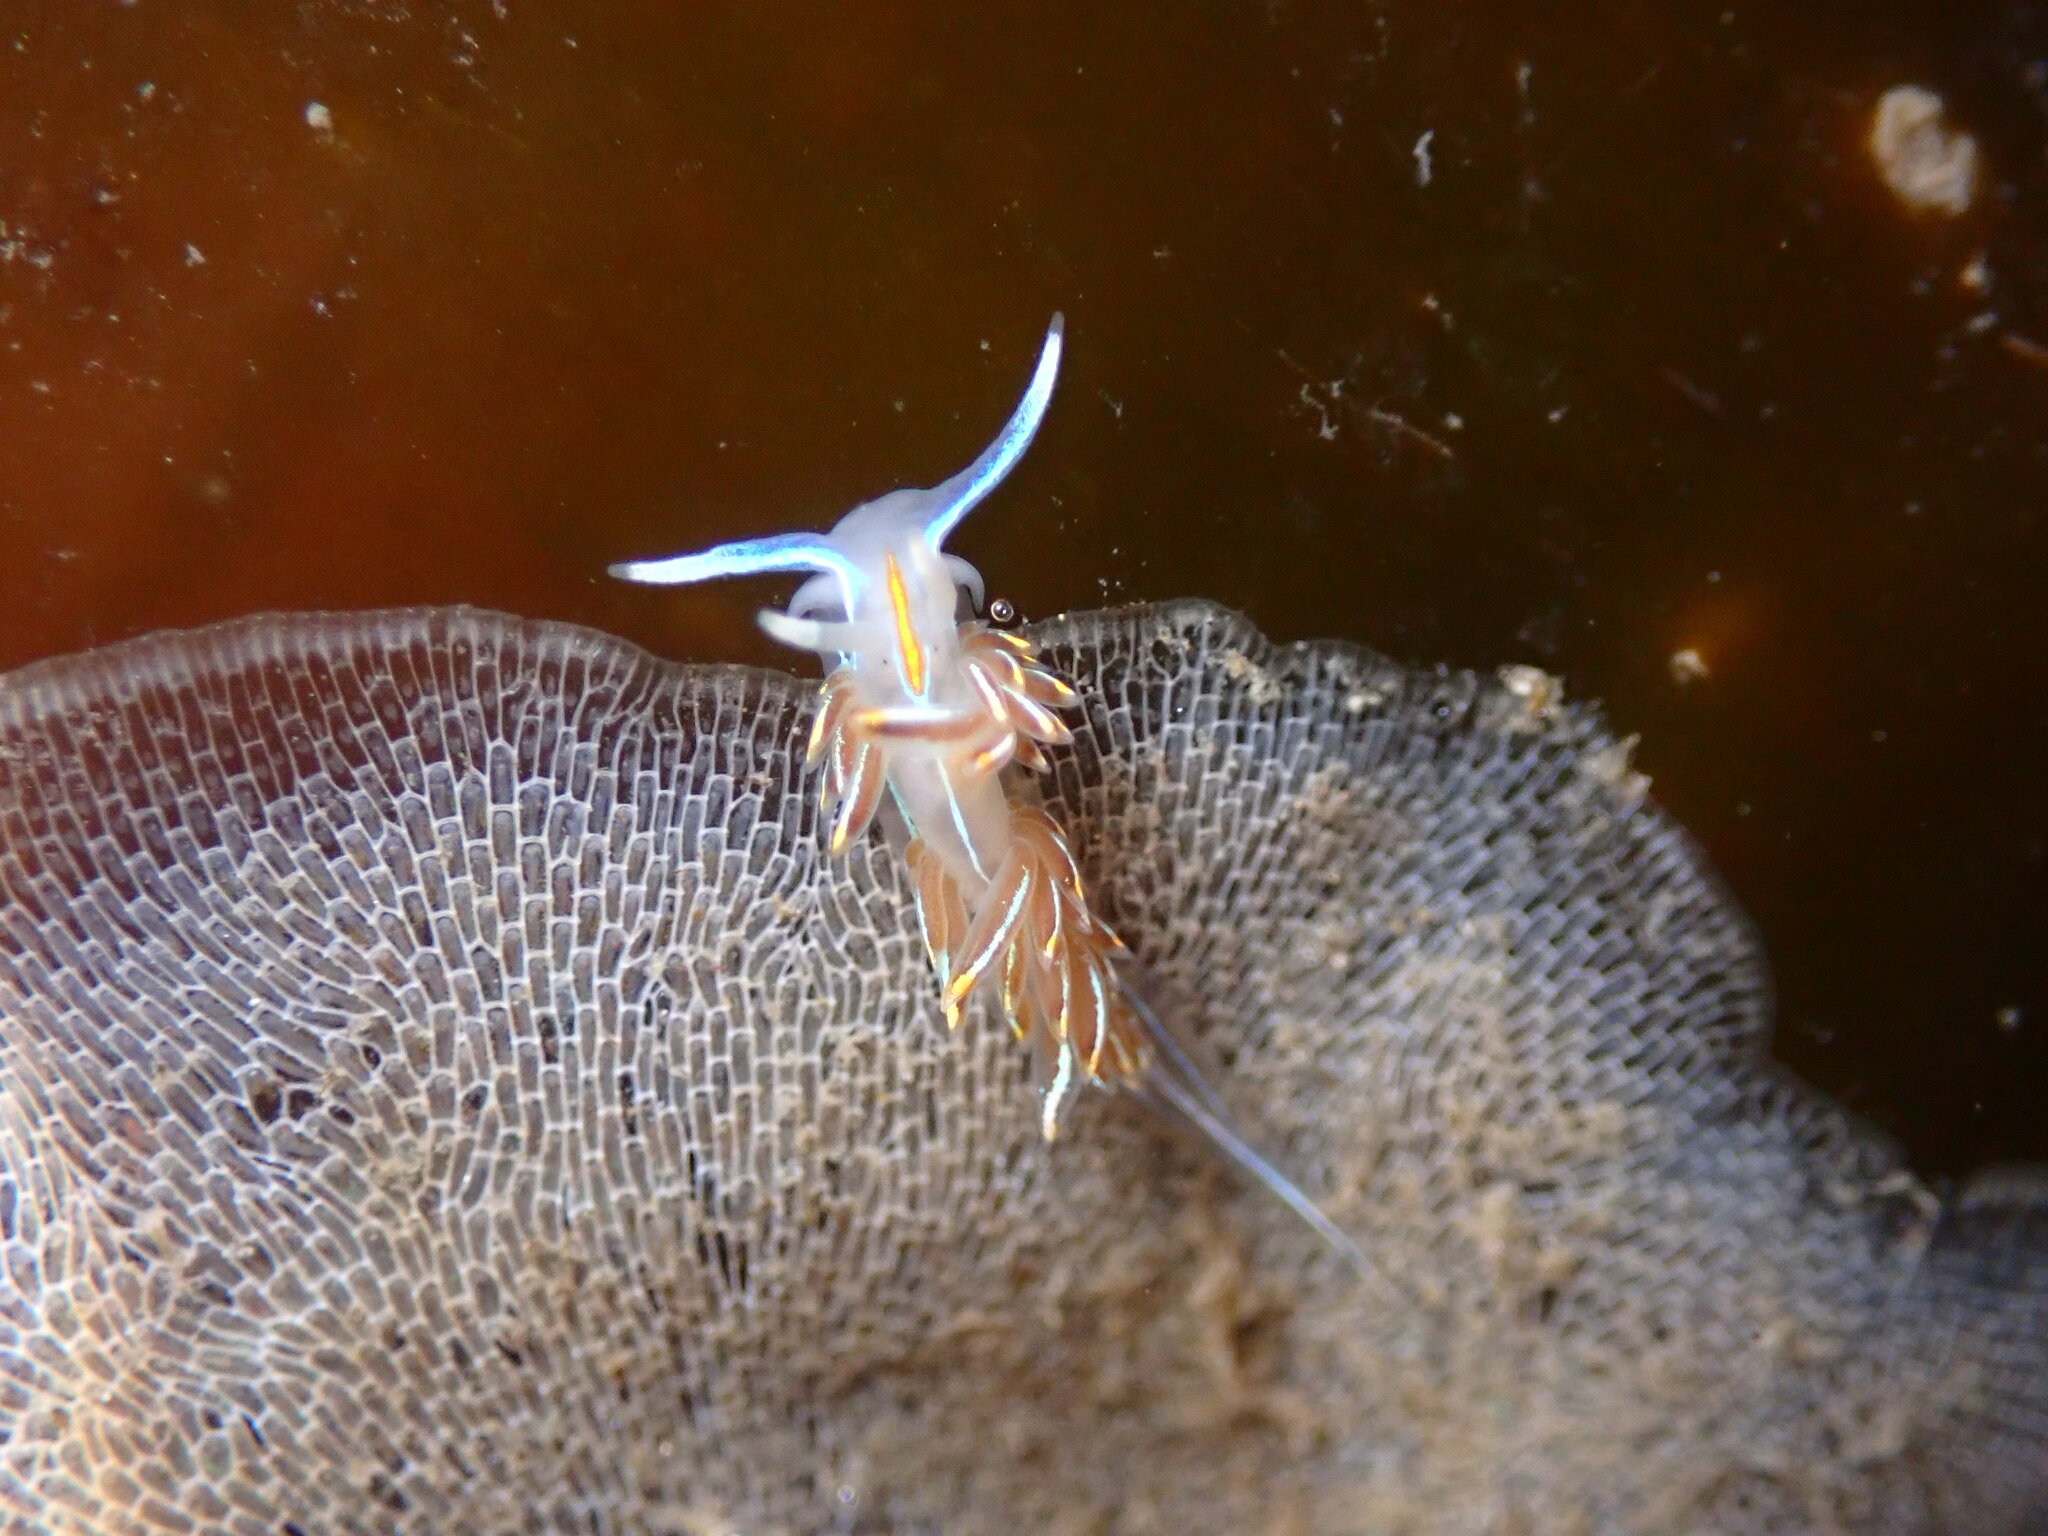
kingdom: Animalia
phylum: Mollusca
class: Gastropoda
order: Nudibranchia
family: Myrrhinidae
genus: Hermissenda
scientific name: Hermissenda crassicornis
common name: Hermissenda
